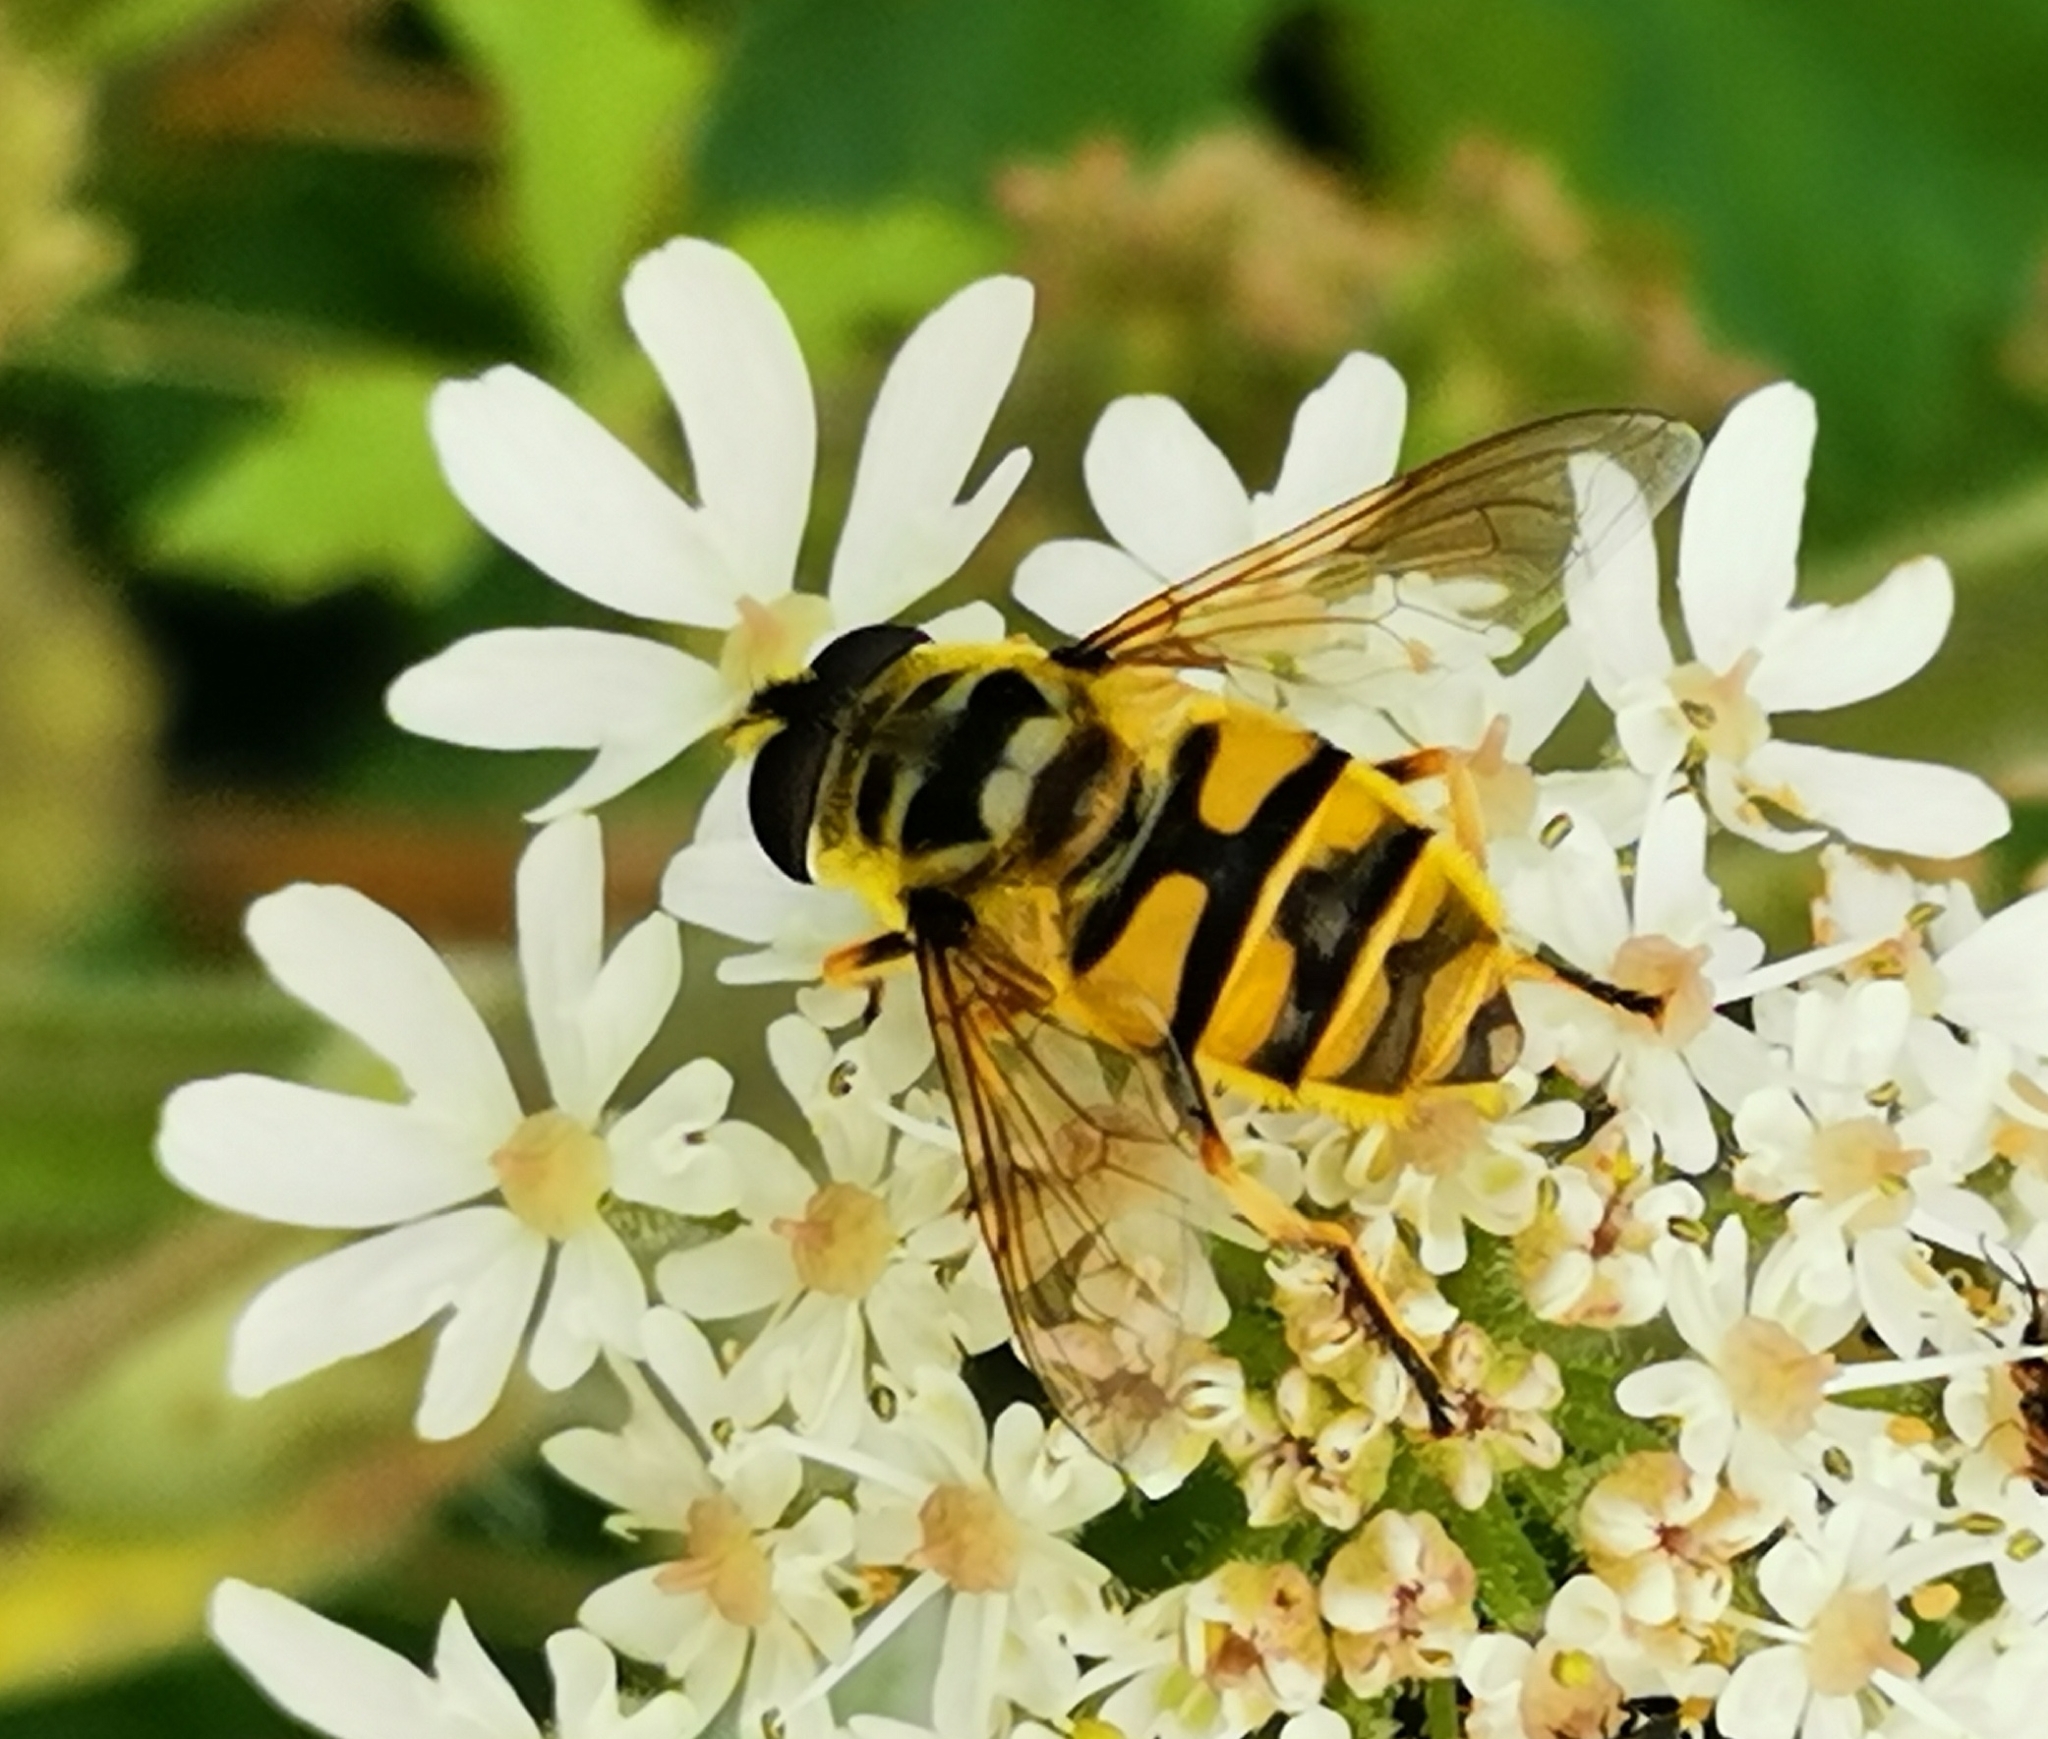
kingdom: Animalia
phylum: Arthropoda
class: Insecta
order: Diptera
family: Syrphidae
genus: Myathropa
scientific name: Myathropa florea
